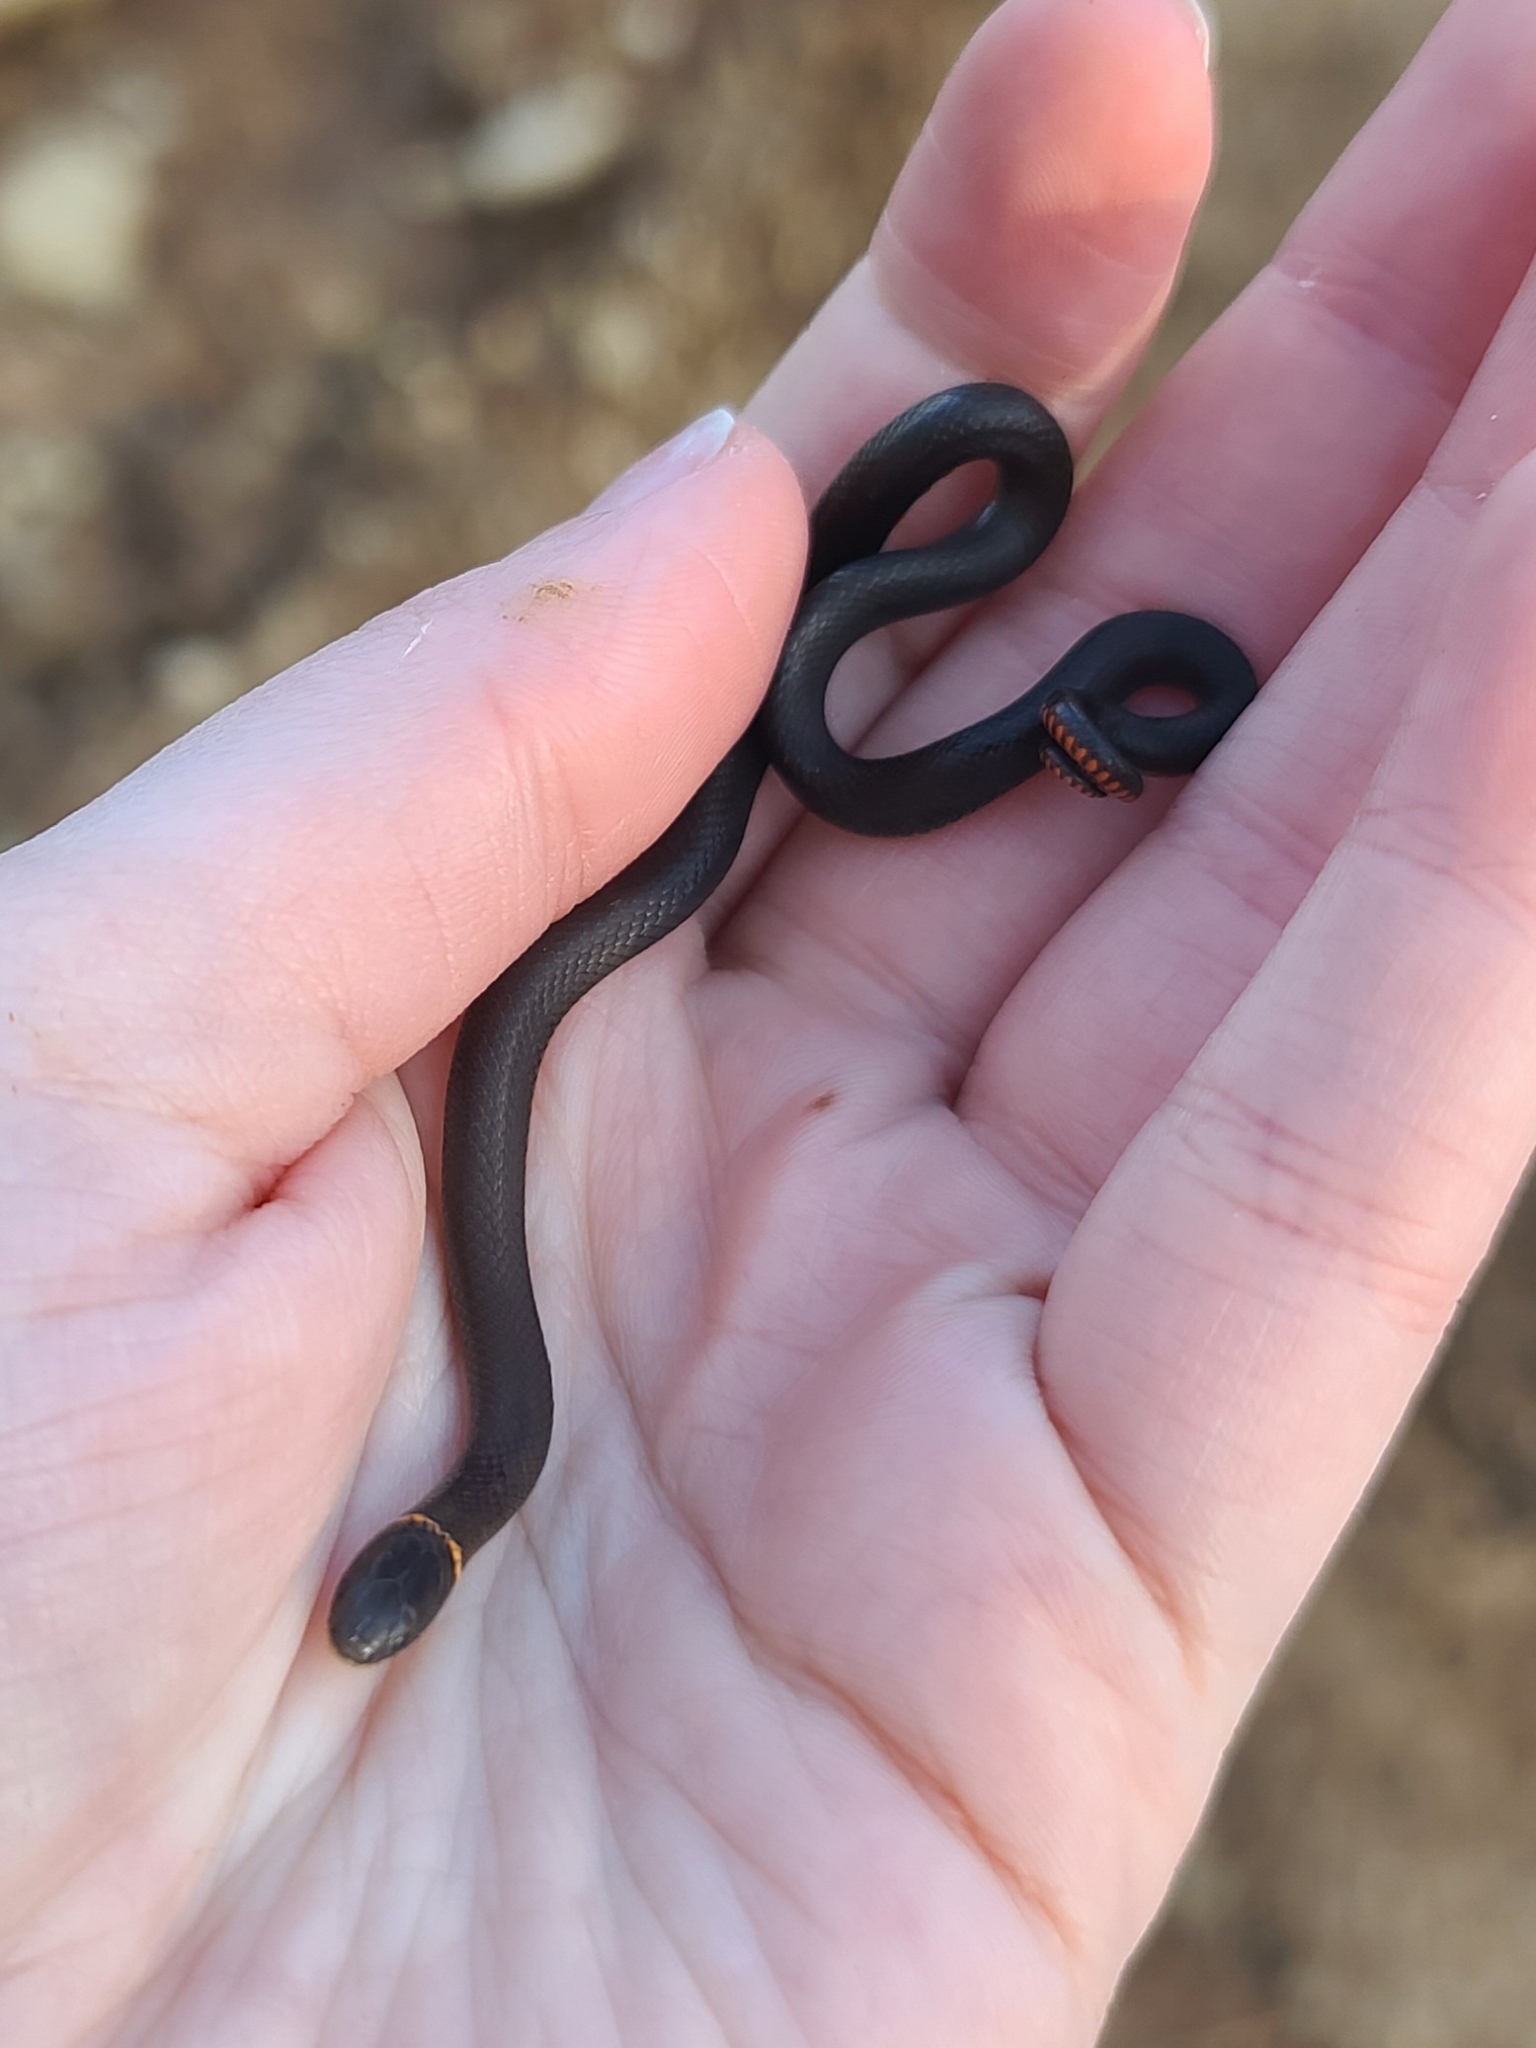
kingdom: Animalia
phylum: Chordata
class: Squamata
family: Colubridae
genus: Diadophis
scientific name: Diadophis punctatus
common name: Ringneck snake
